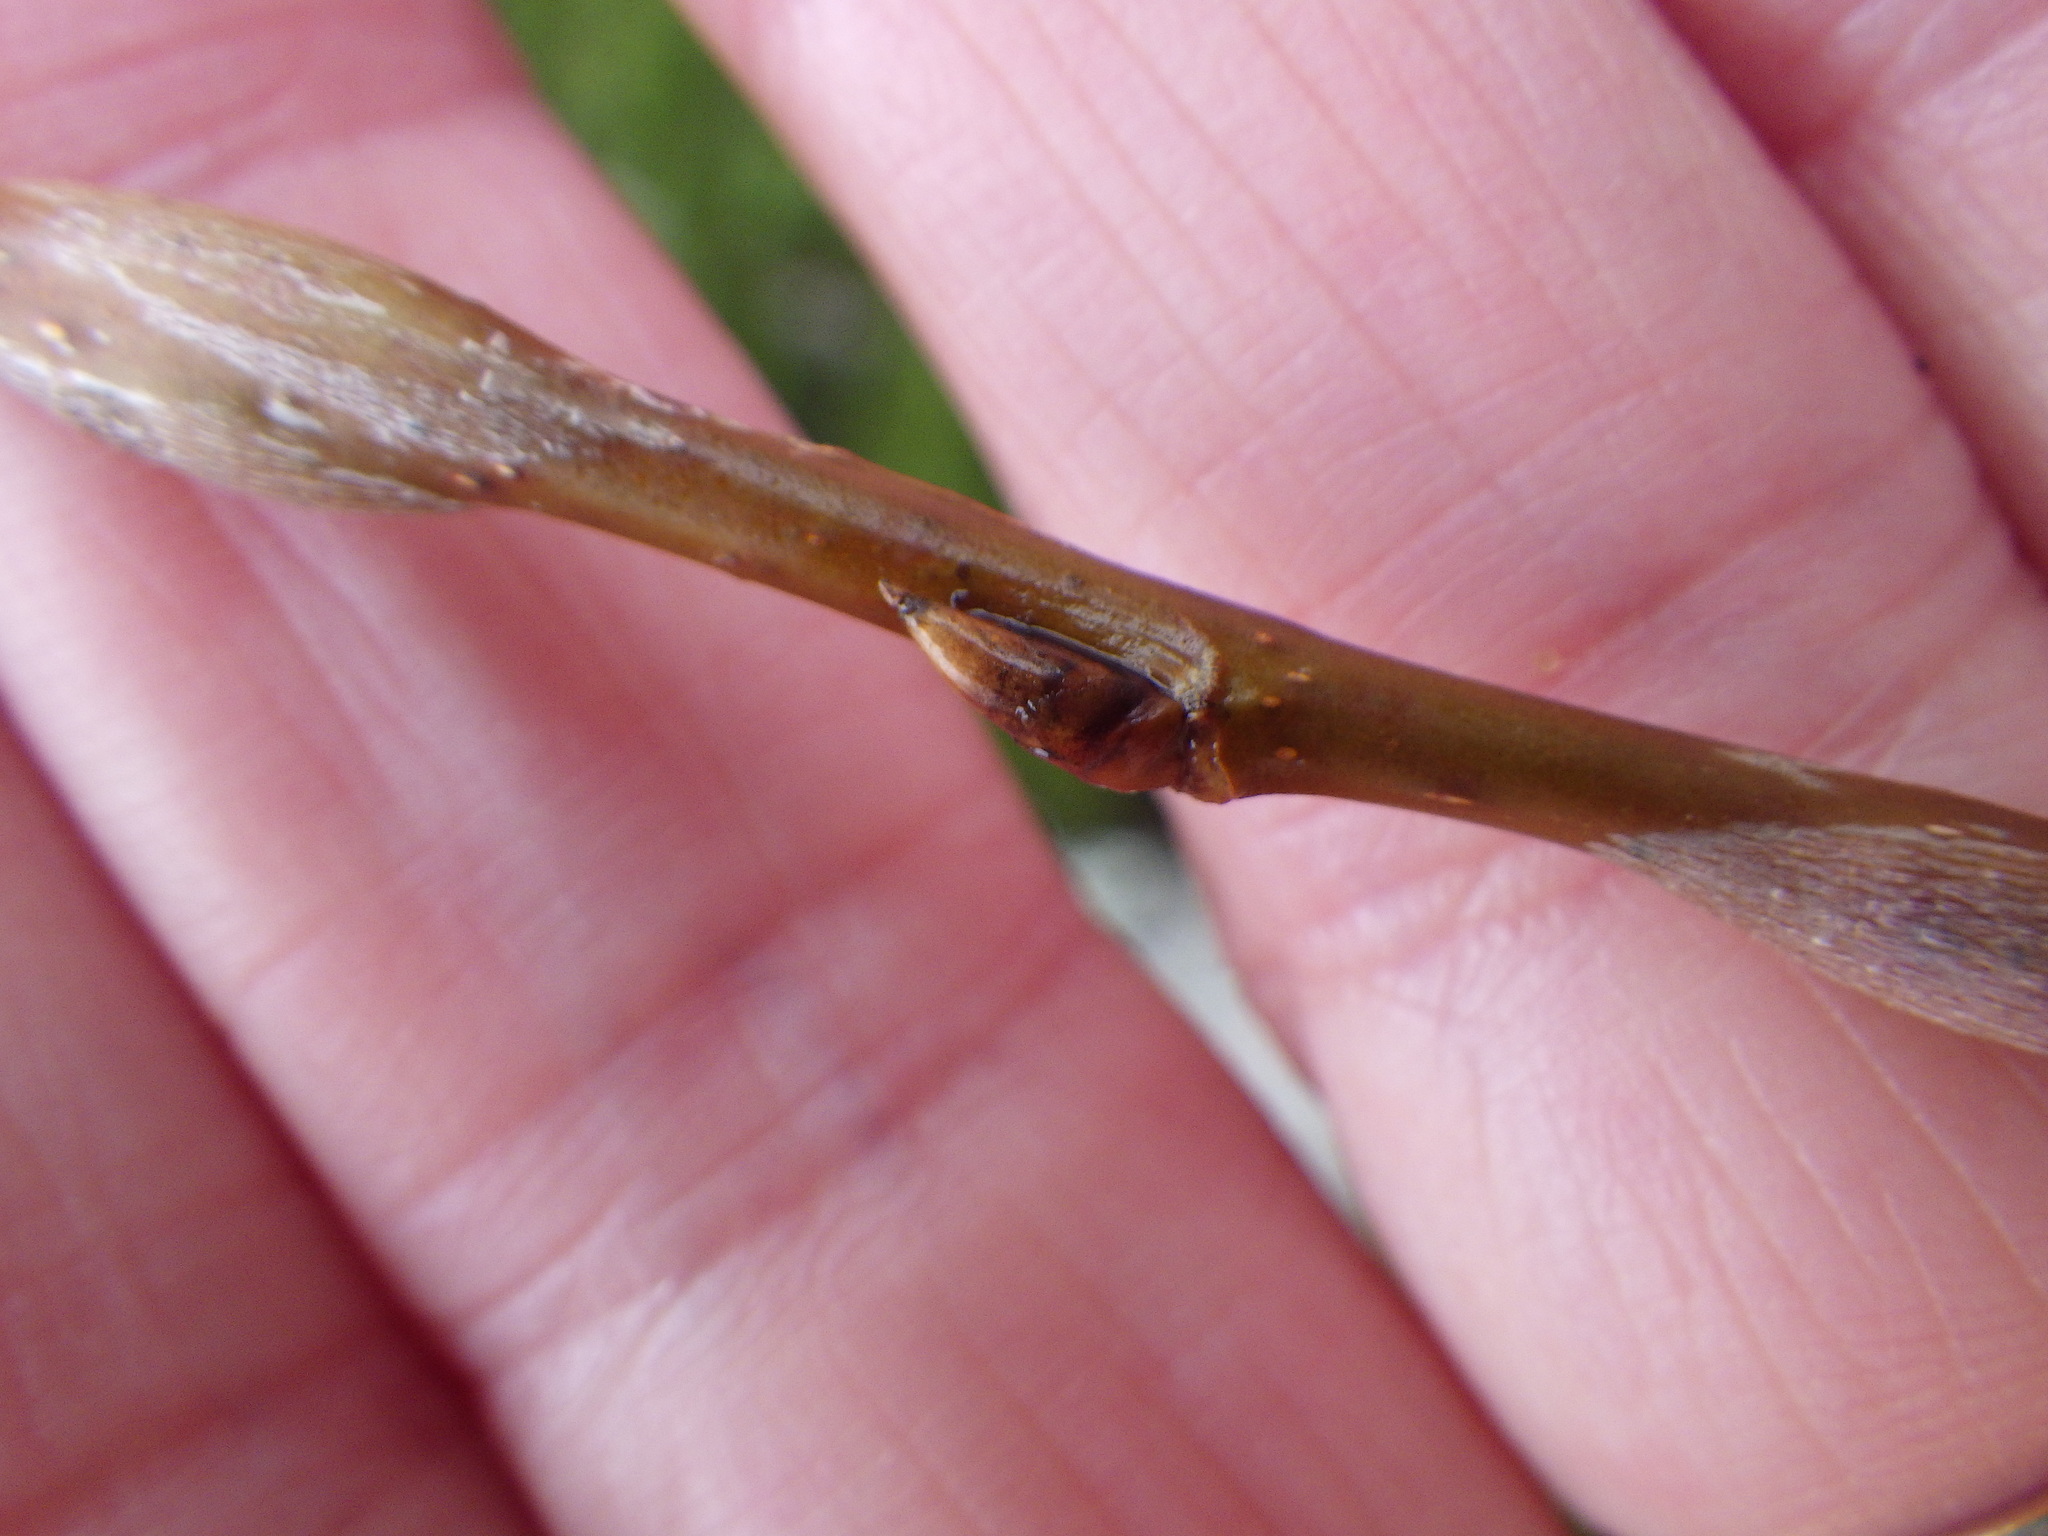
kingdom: Plantae
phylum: Tracheophyta
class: Magnoliopsida
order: Malpighiales
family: Salicaceae
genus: Populus
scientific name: Populus tremuloides
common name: Quaking aspen
